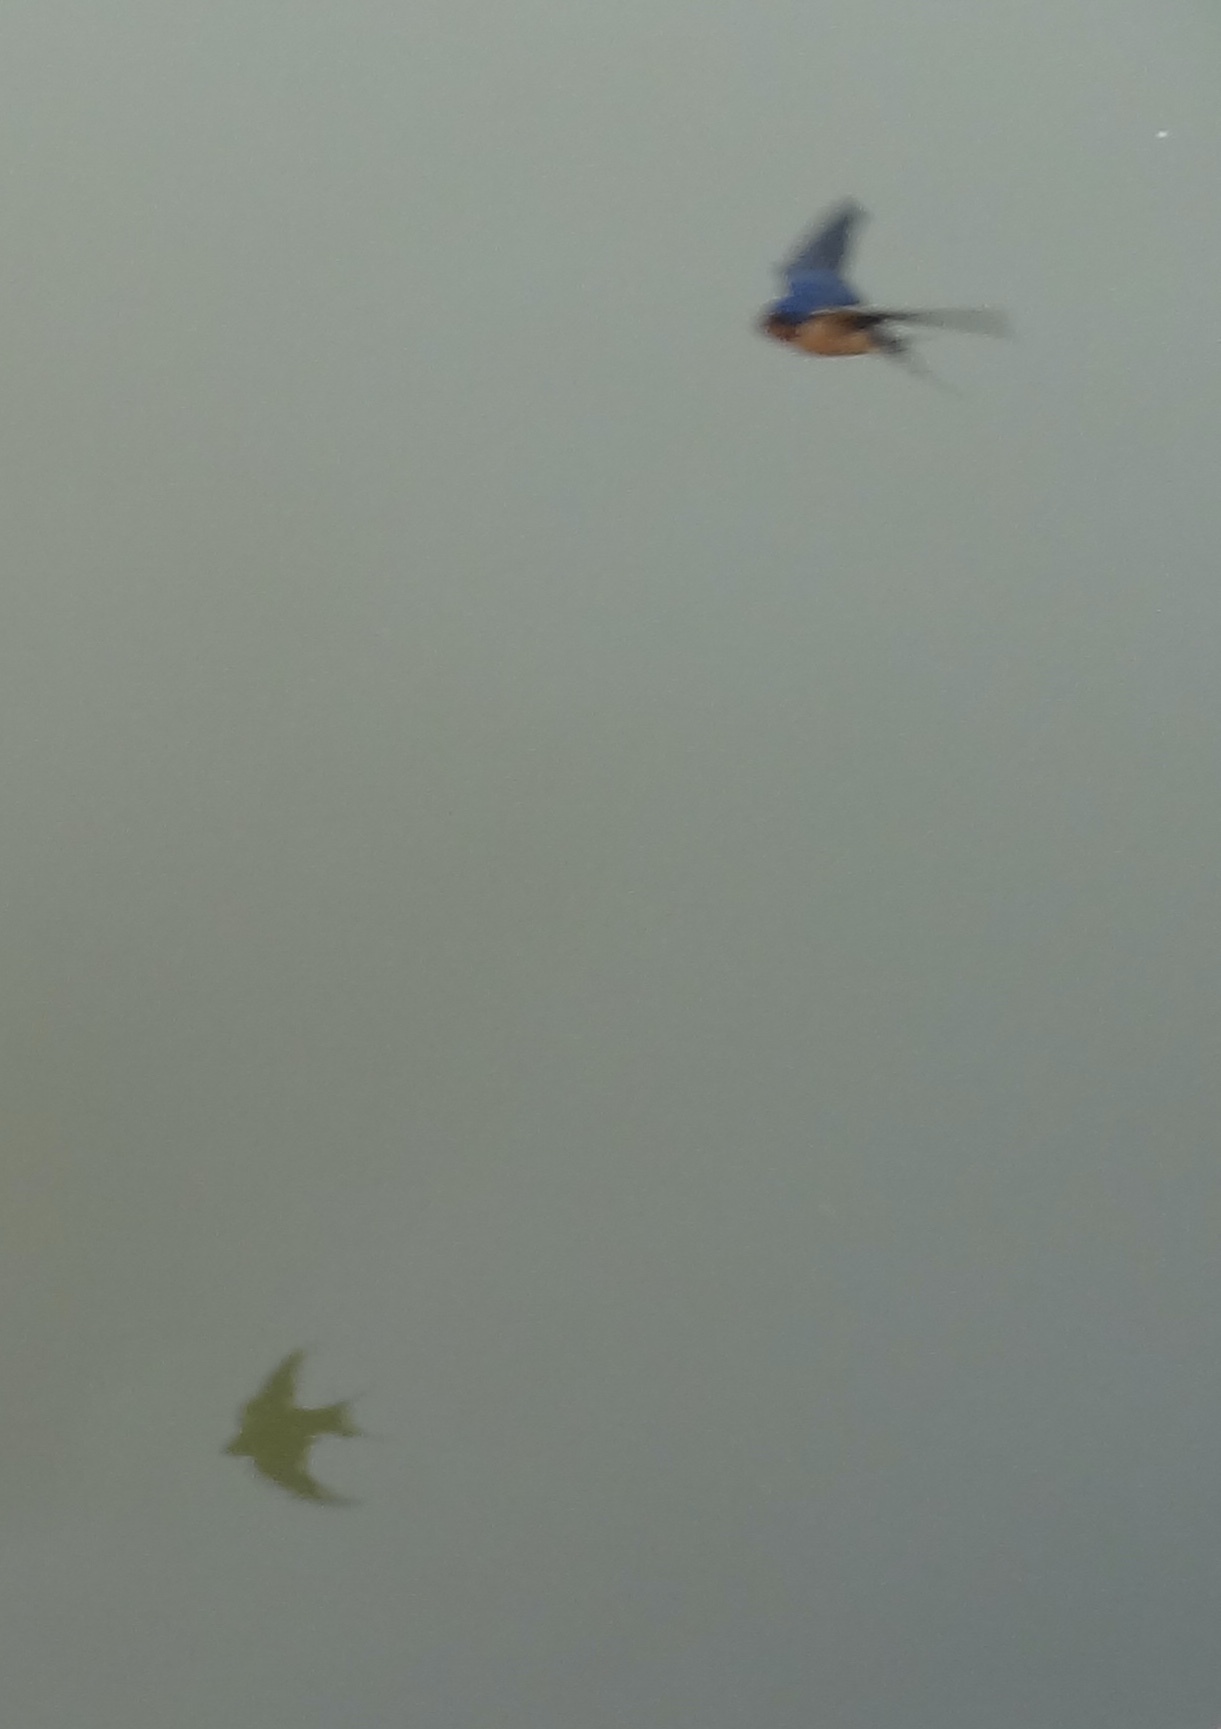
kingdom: Animalia
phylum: Chordata
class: Aves
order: Passeriformes
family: Hirundinidae
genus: Hirundo
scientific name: Hirundo rustica
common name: Barn swallow
